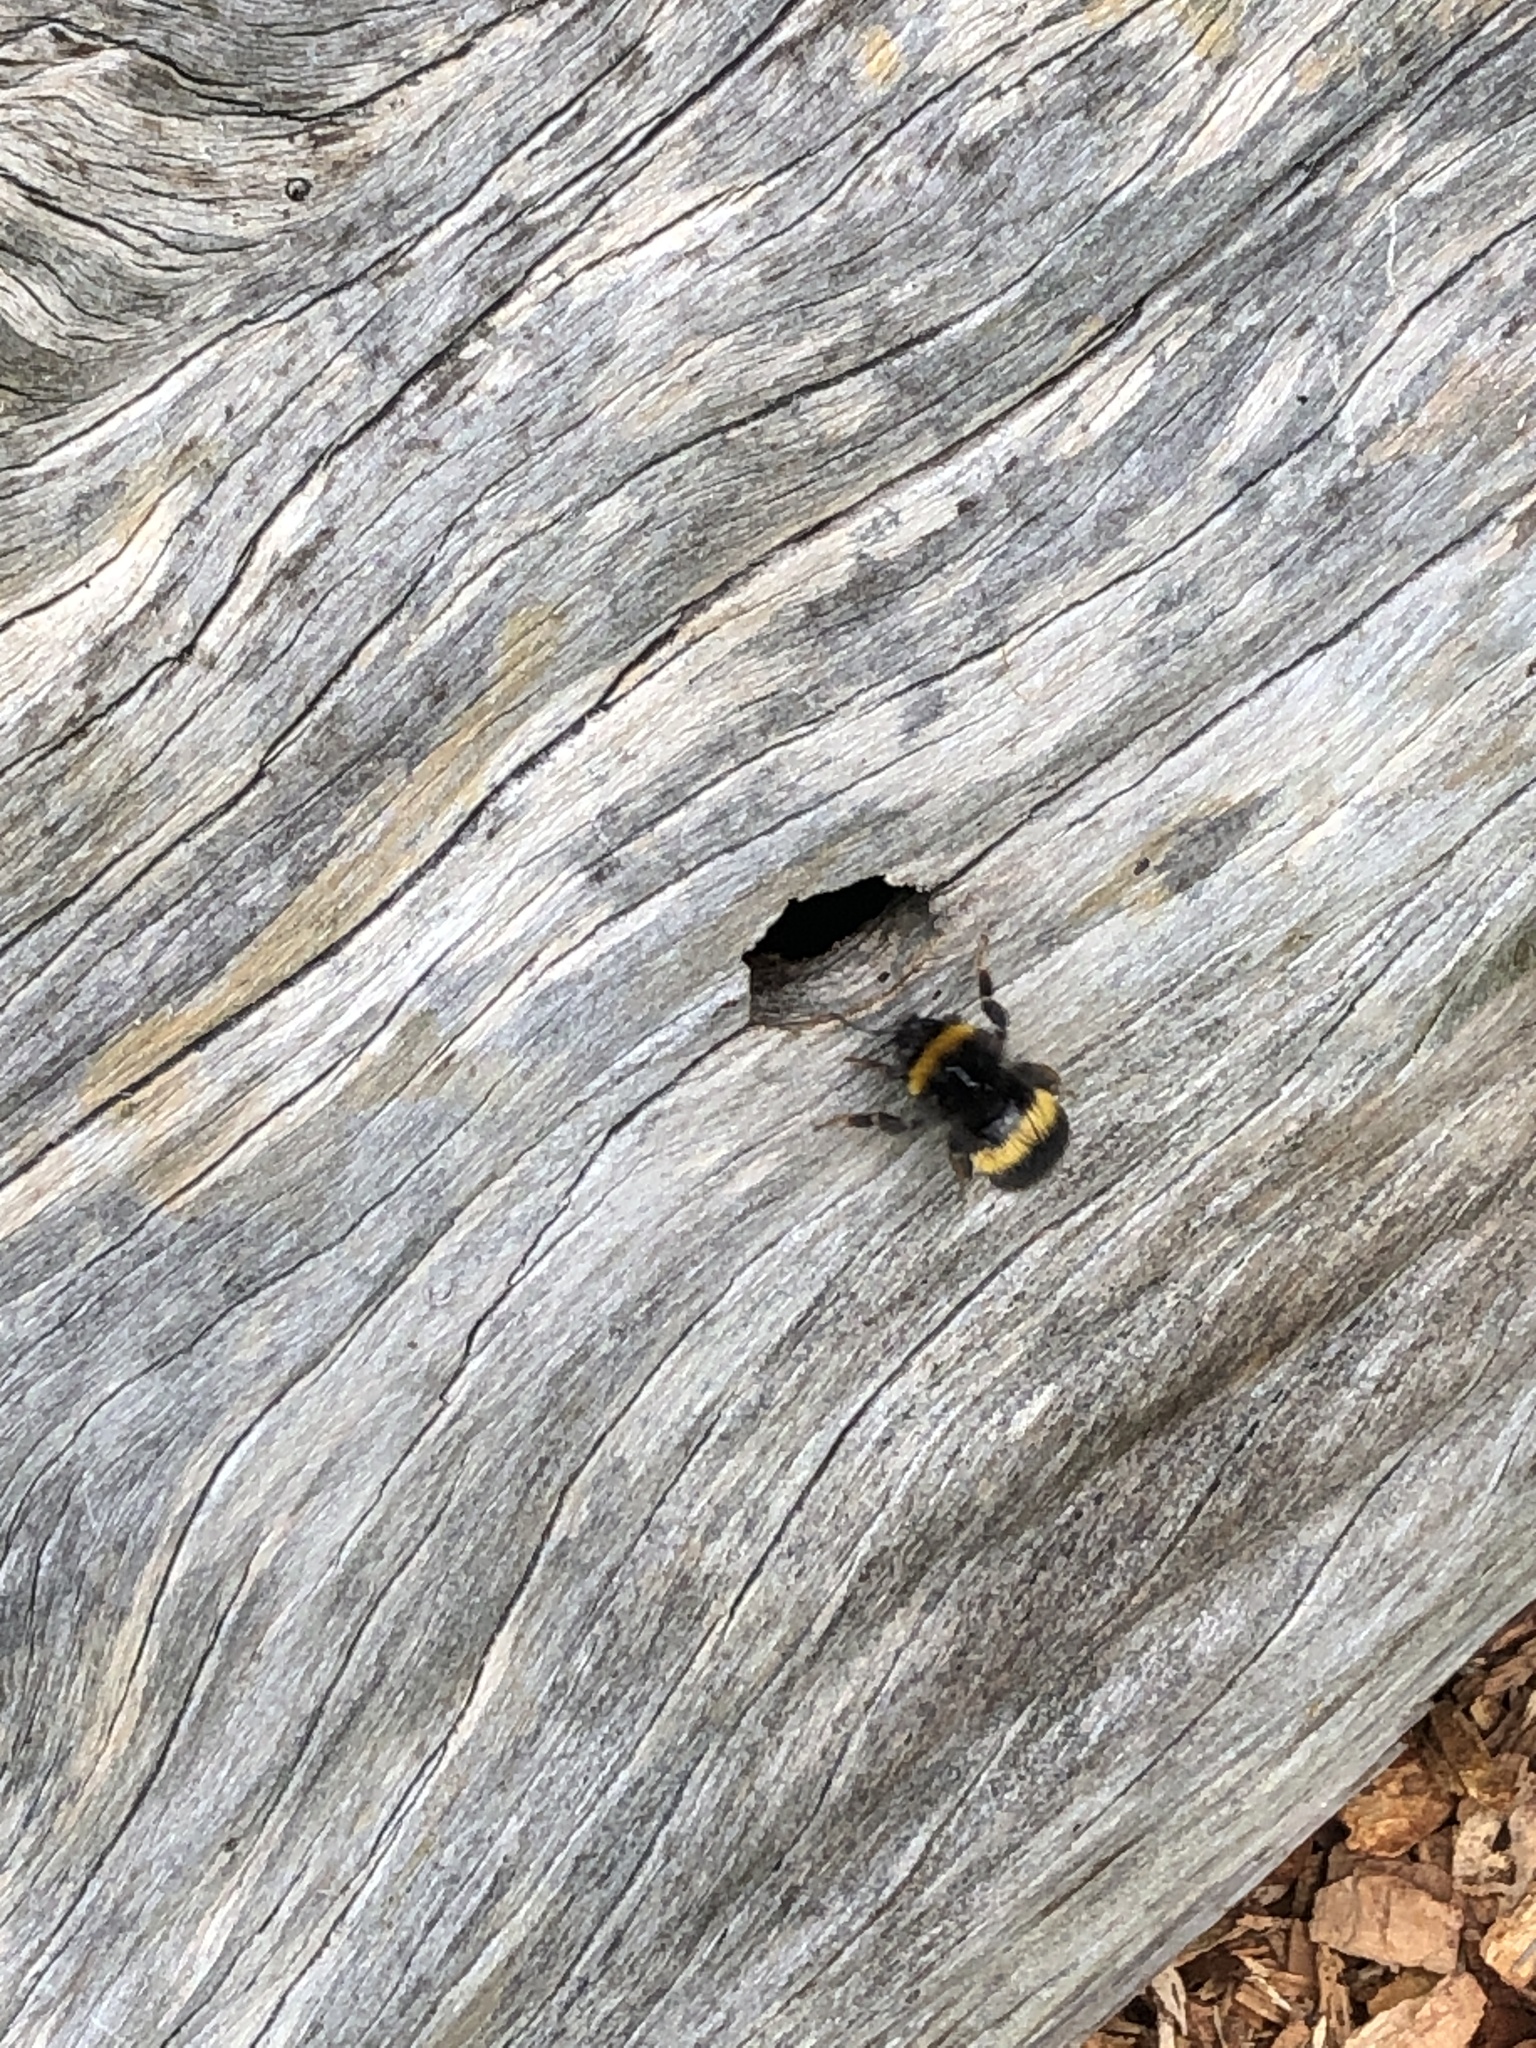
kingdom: Animalia
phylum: Arthropoda
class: Insecta
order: Hymenoptera
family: Apidae
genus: Bombus
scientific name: Bombus terrestris
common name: Buff-tailed bumblebee
